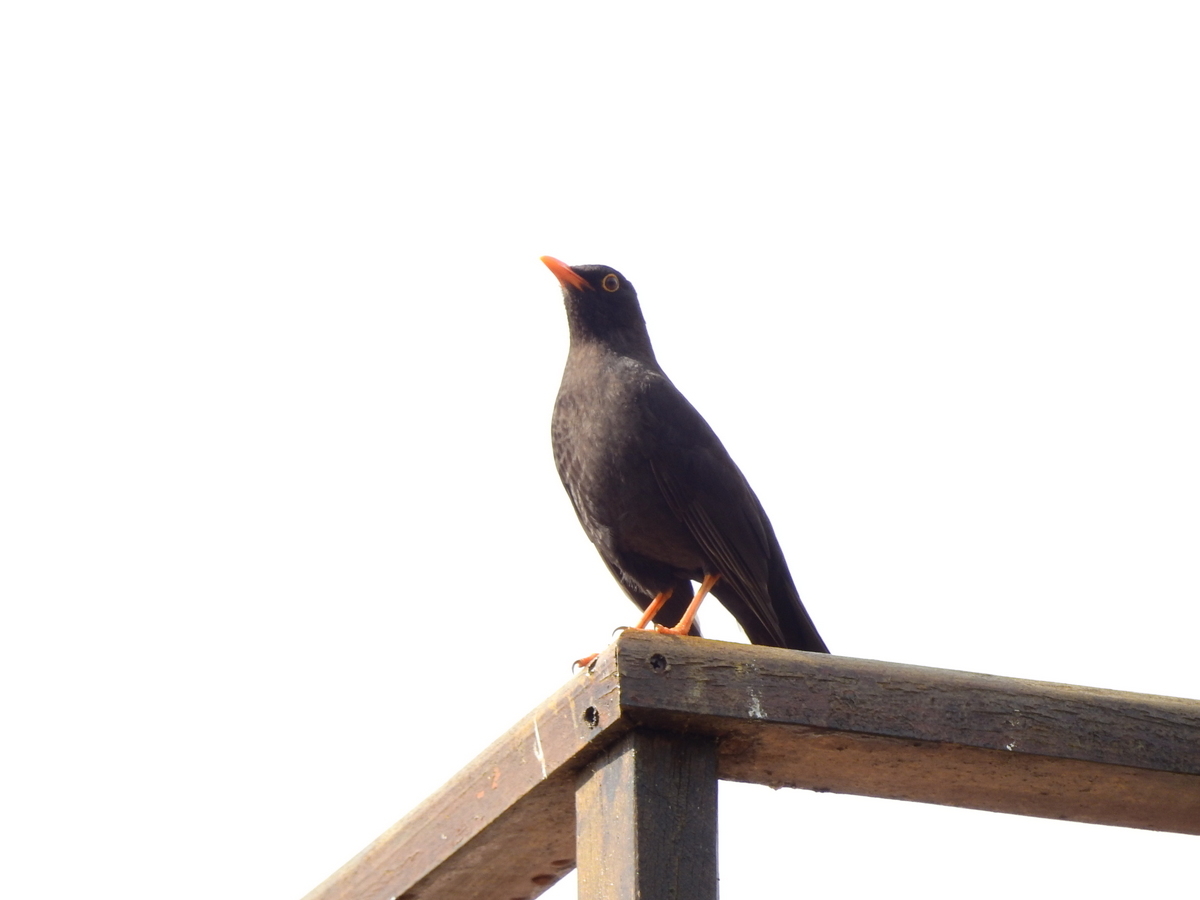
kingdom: Animalia
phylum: Chordata
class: Aves
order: Passeriformes
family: Turdidae
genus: Turdus
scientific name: Turdus chiguanco
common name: Chiguanco thrush
